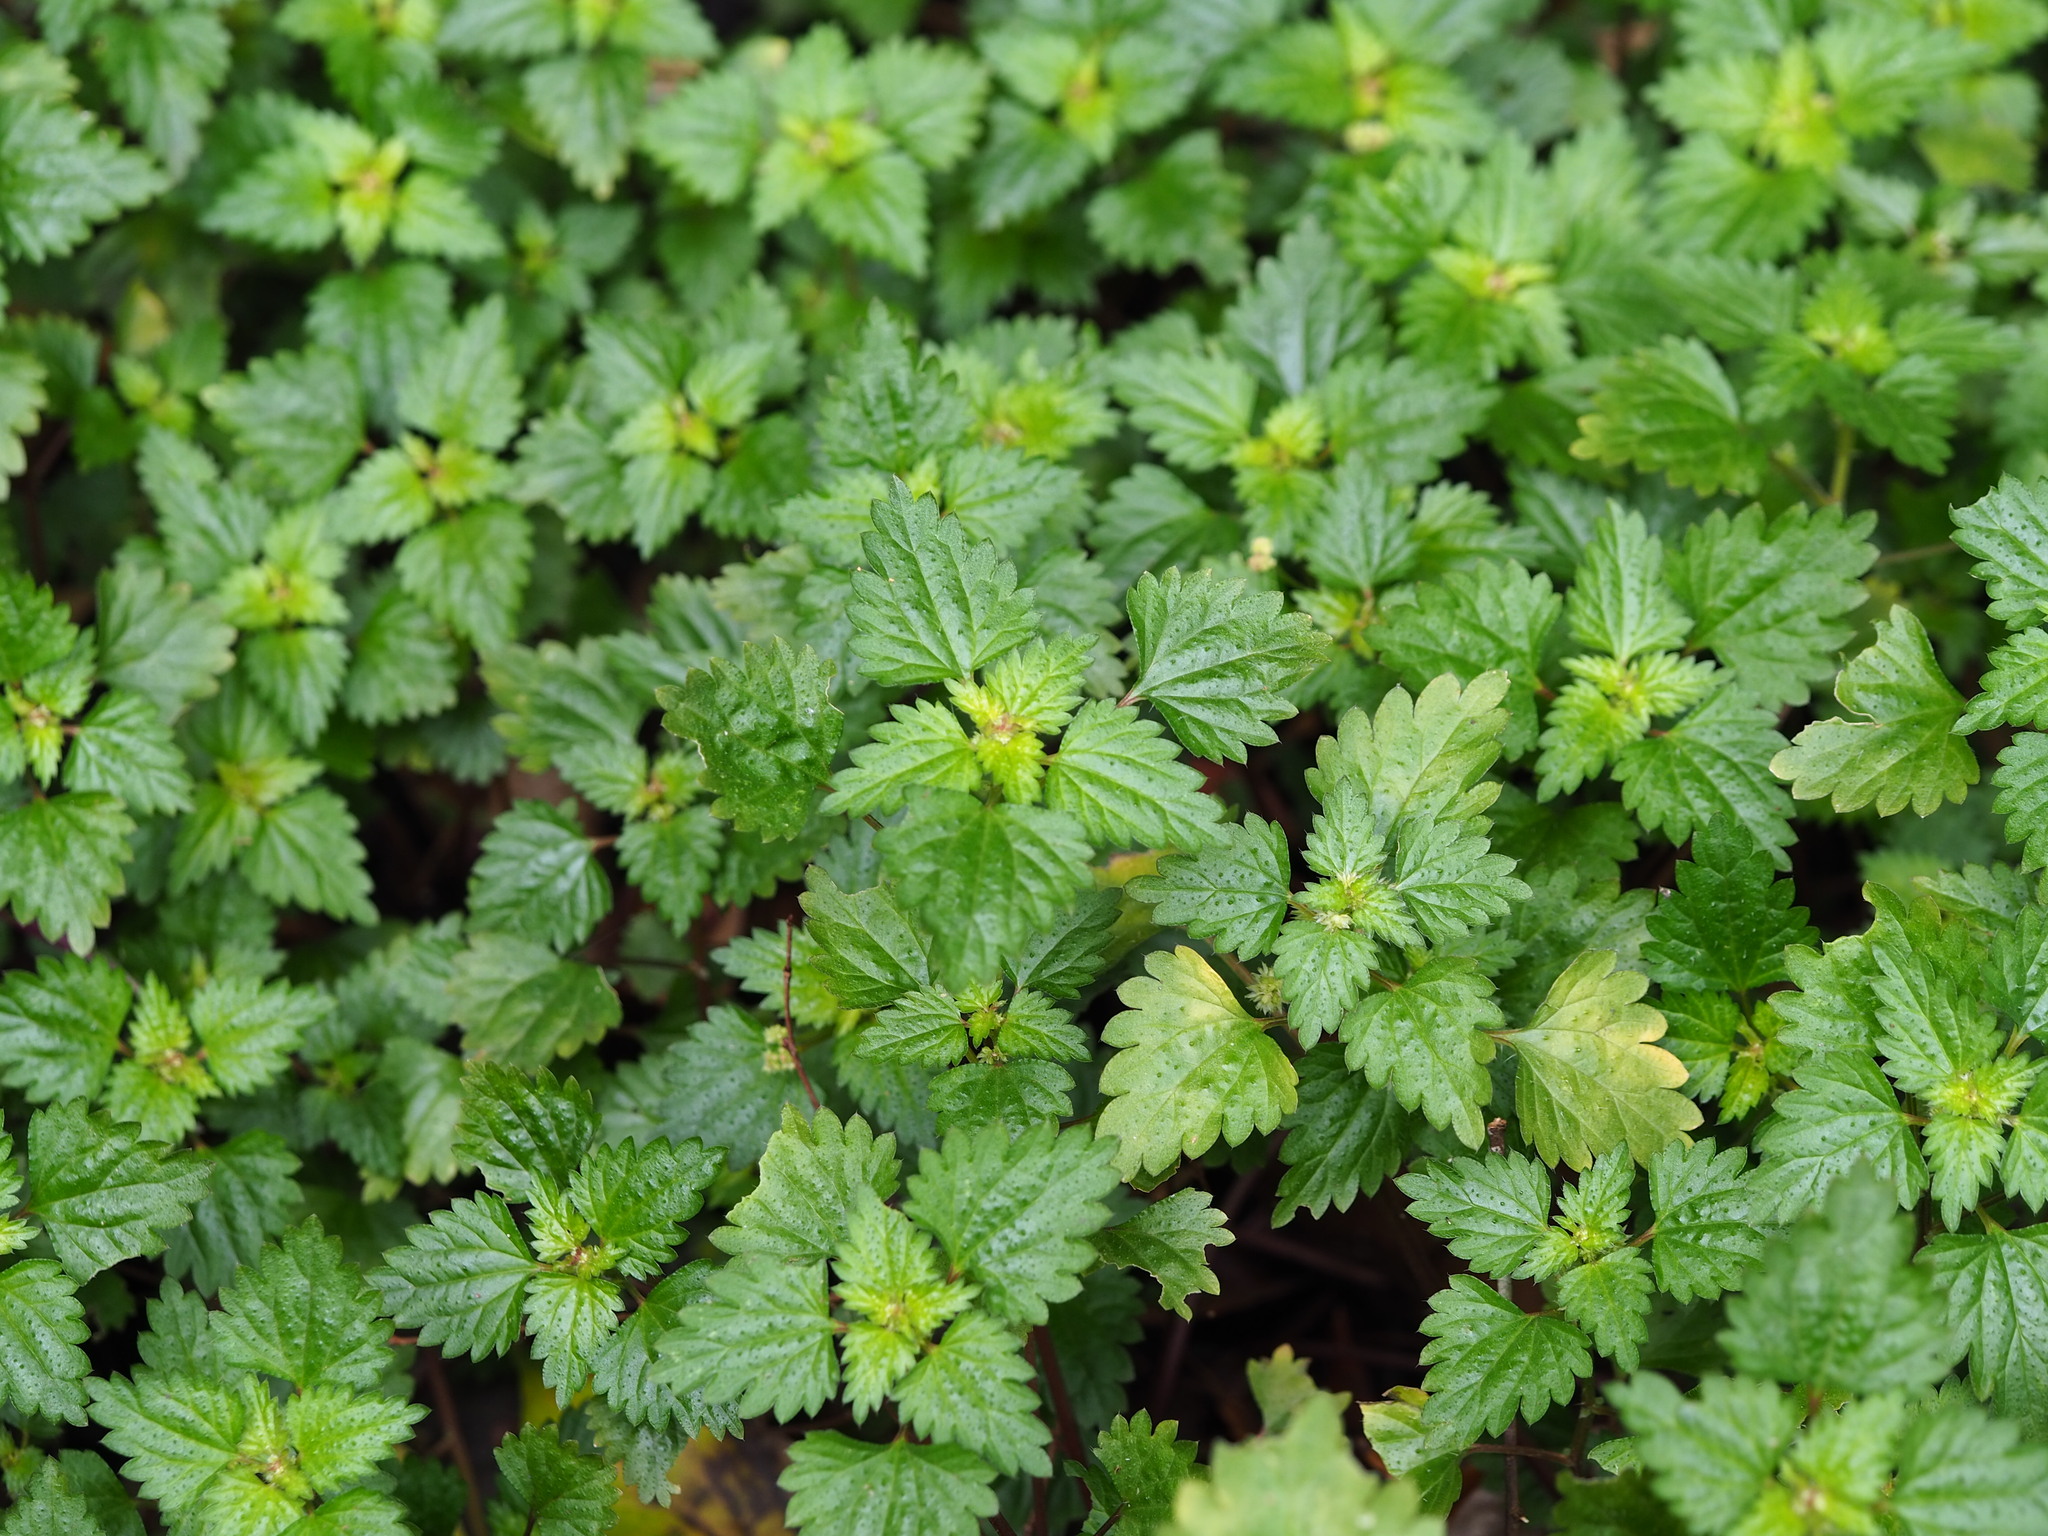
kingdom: Plantae
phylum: Tracheophyta
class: Magnoliopsida
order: Rosales
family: Urticaceae
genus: Nanocnide
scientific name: Nanocnide japonica
